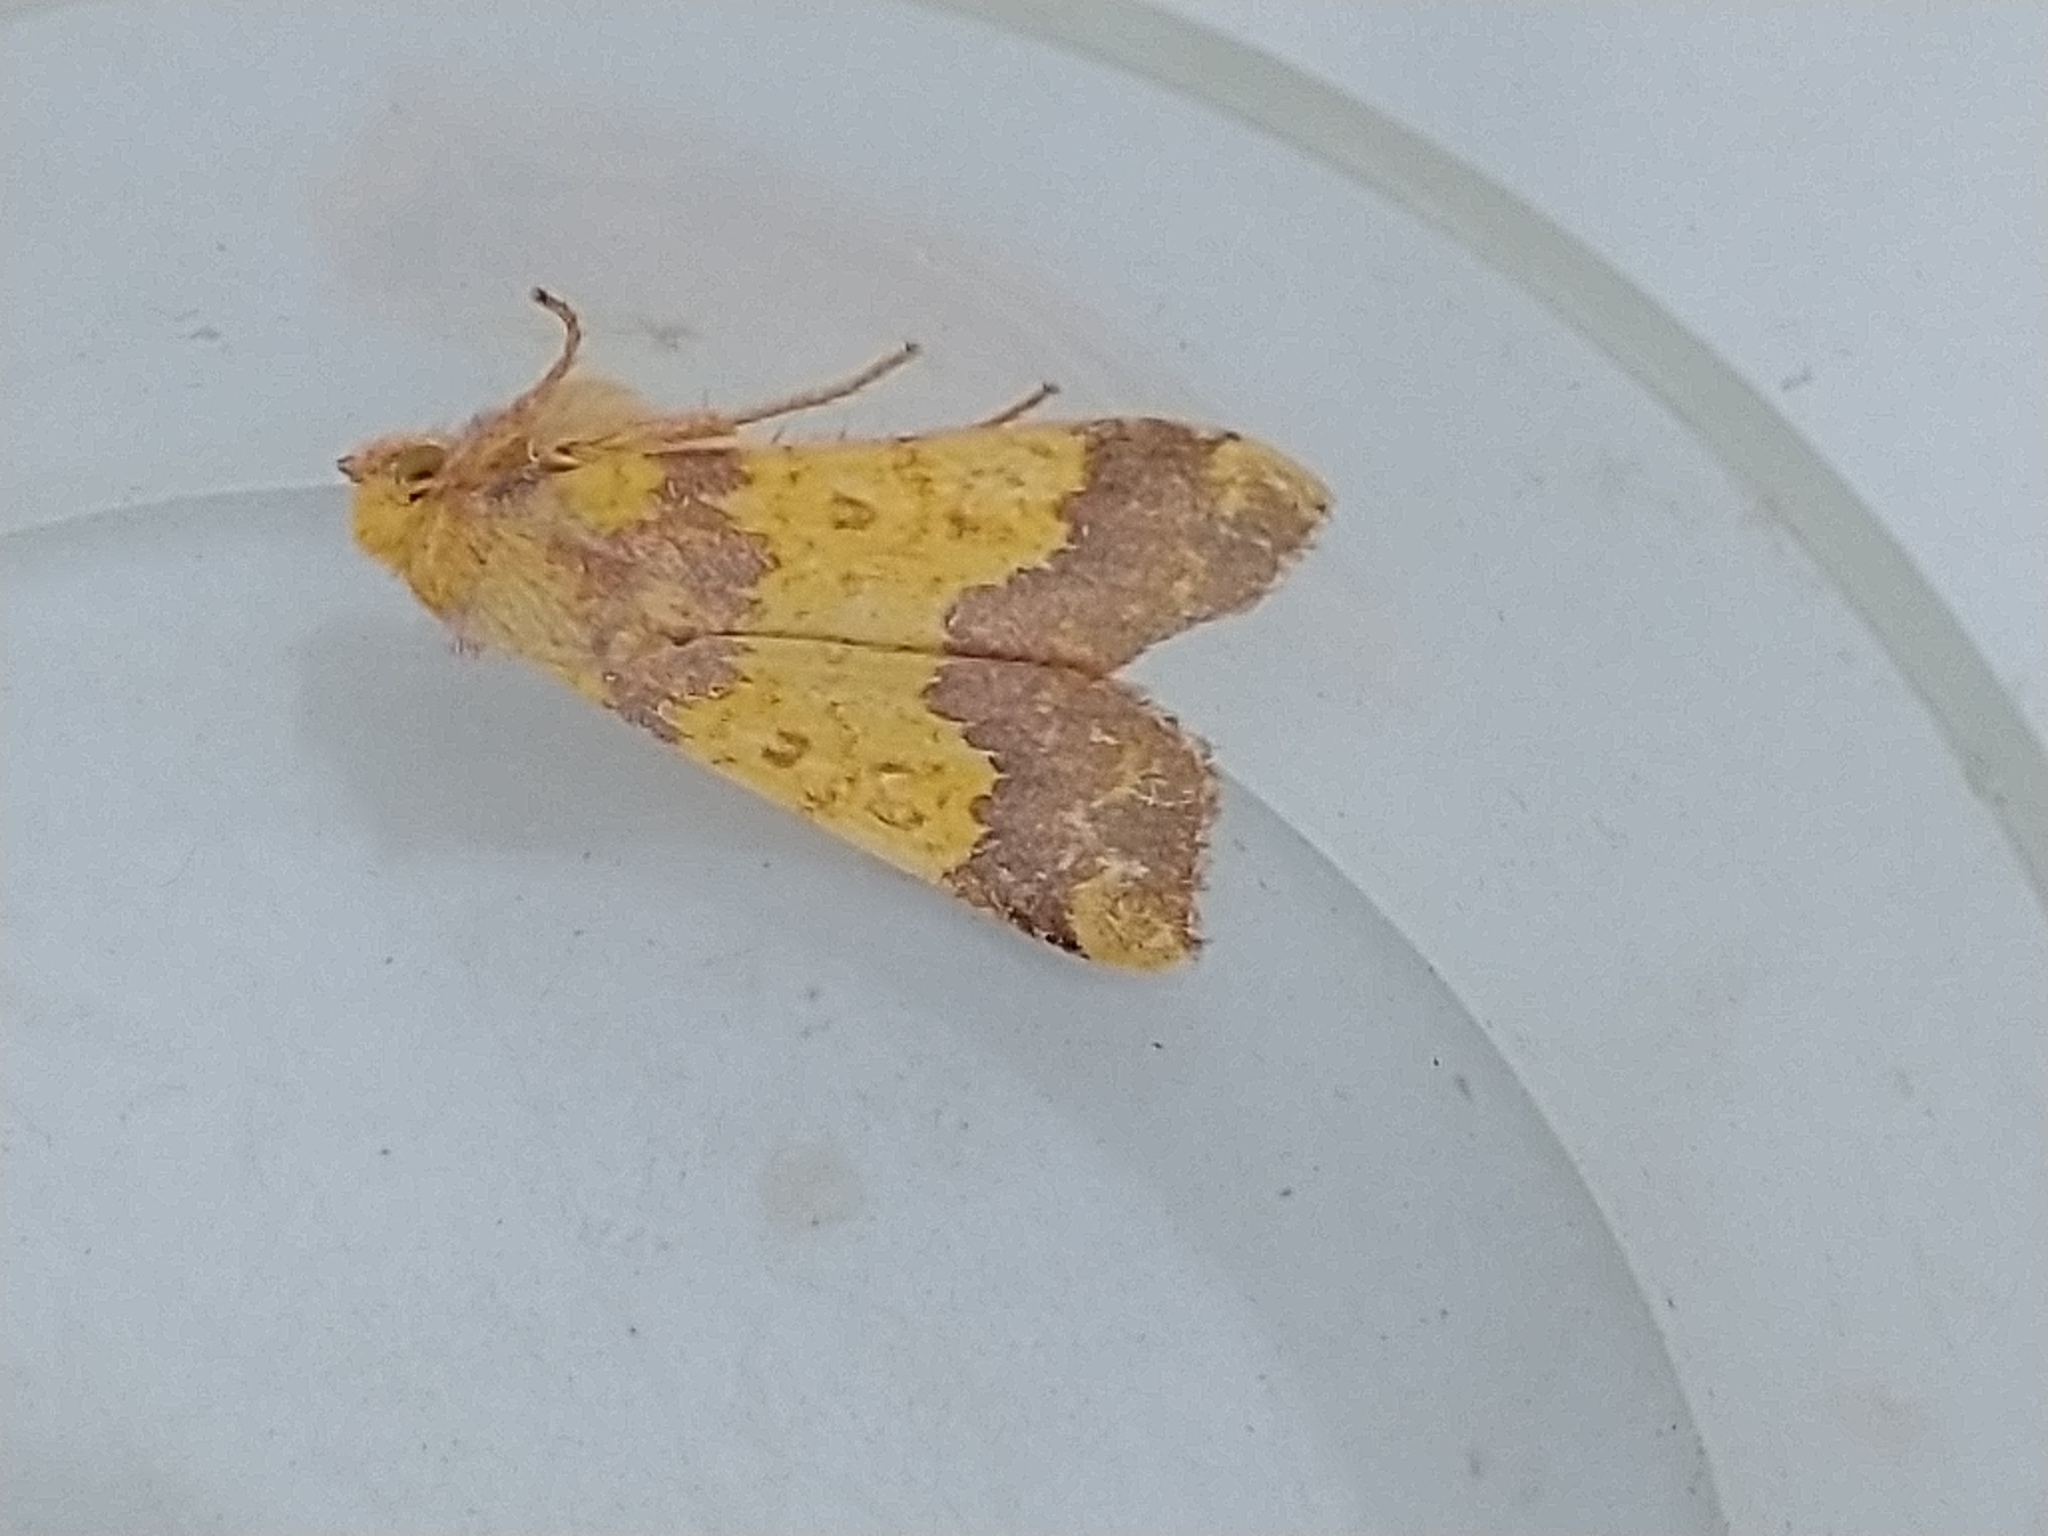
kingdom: Animalia
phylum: Arthropoda
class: Insecta
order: Lepidoptera
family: Noctuidae
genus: Tiliacea
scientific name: Tiliacea aurago
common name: Barred sallow
